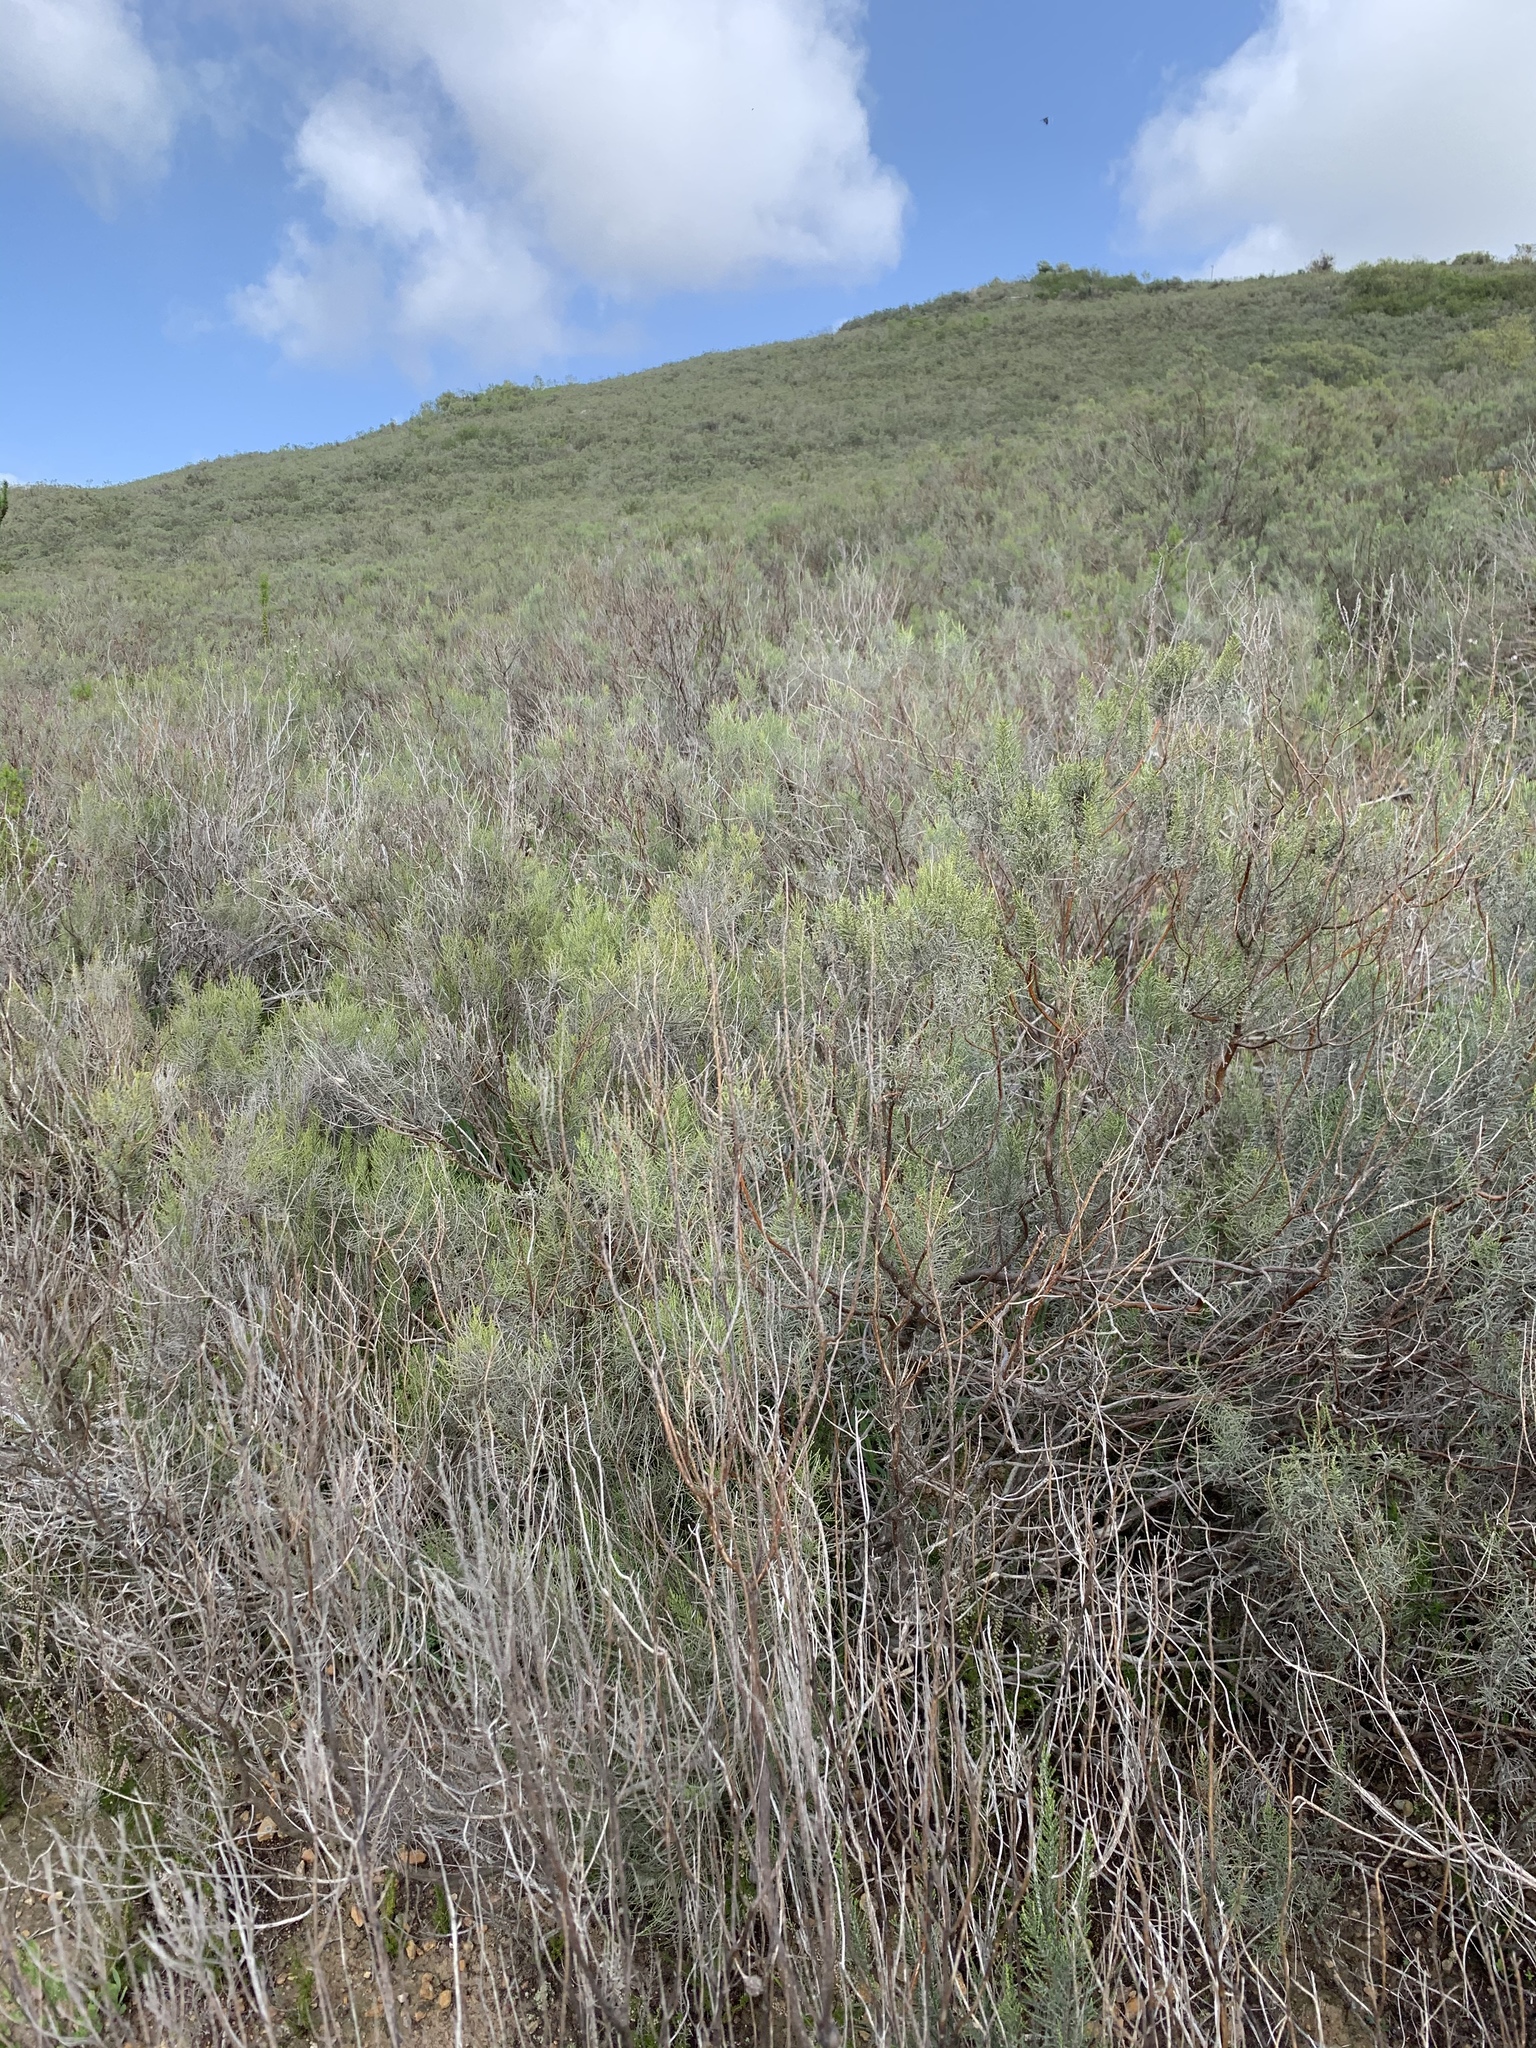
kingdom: Plantae
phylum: Tracheophyta
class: Magnoliopsida
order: Asterales
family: Asteraceae
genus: Dicerothamnus
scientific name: Dicerothamnus rhinocerotis
